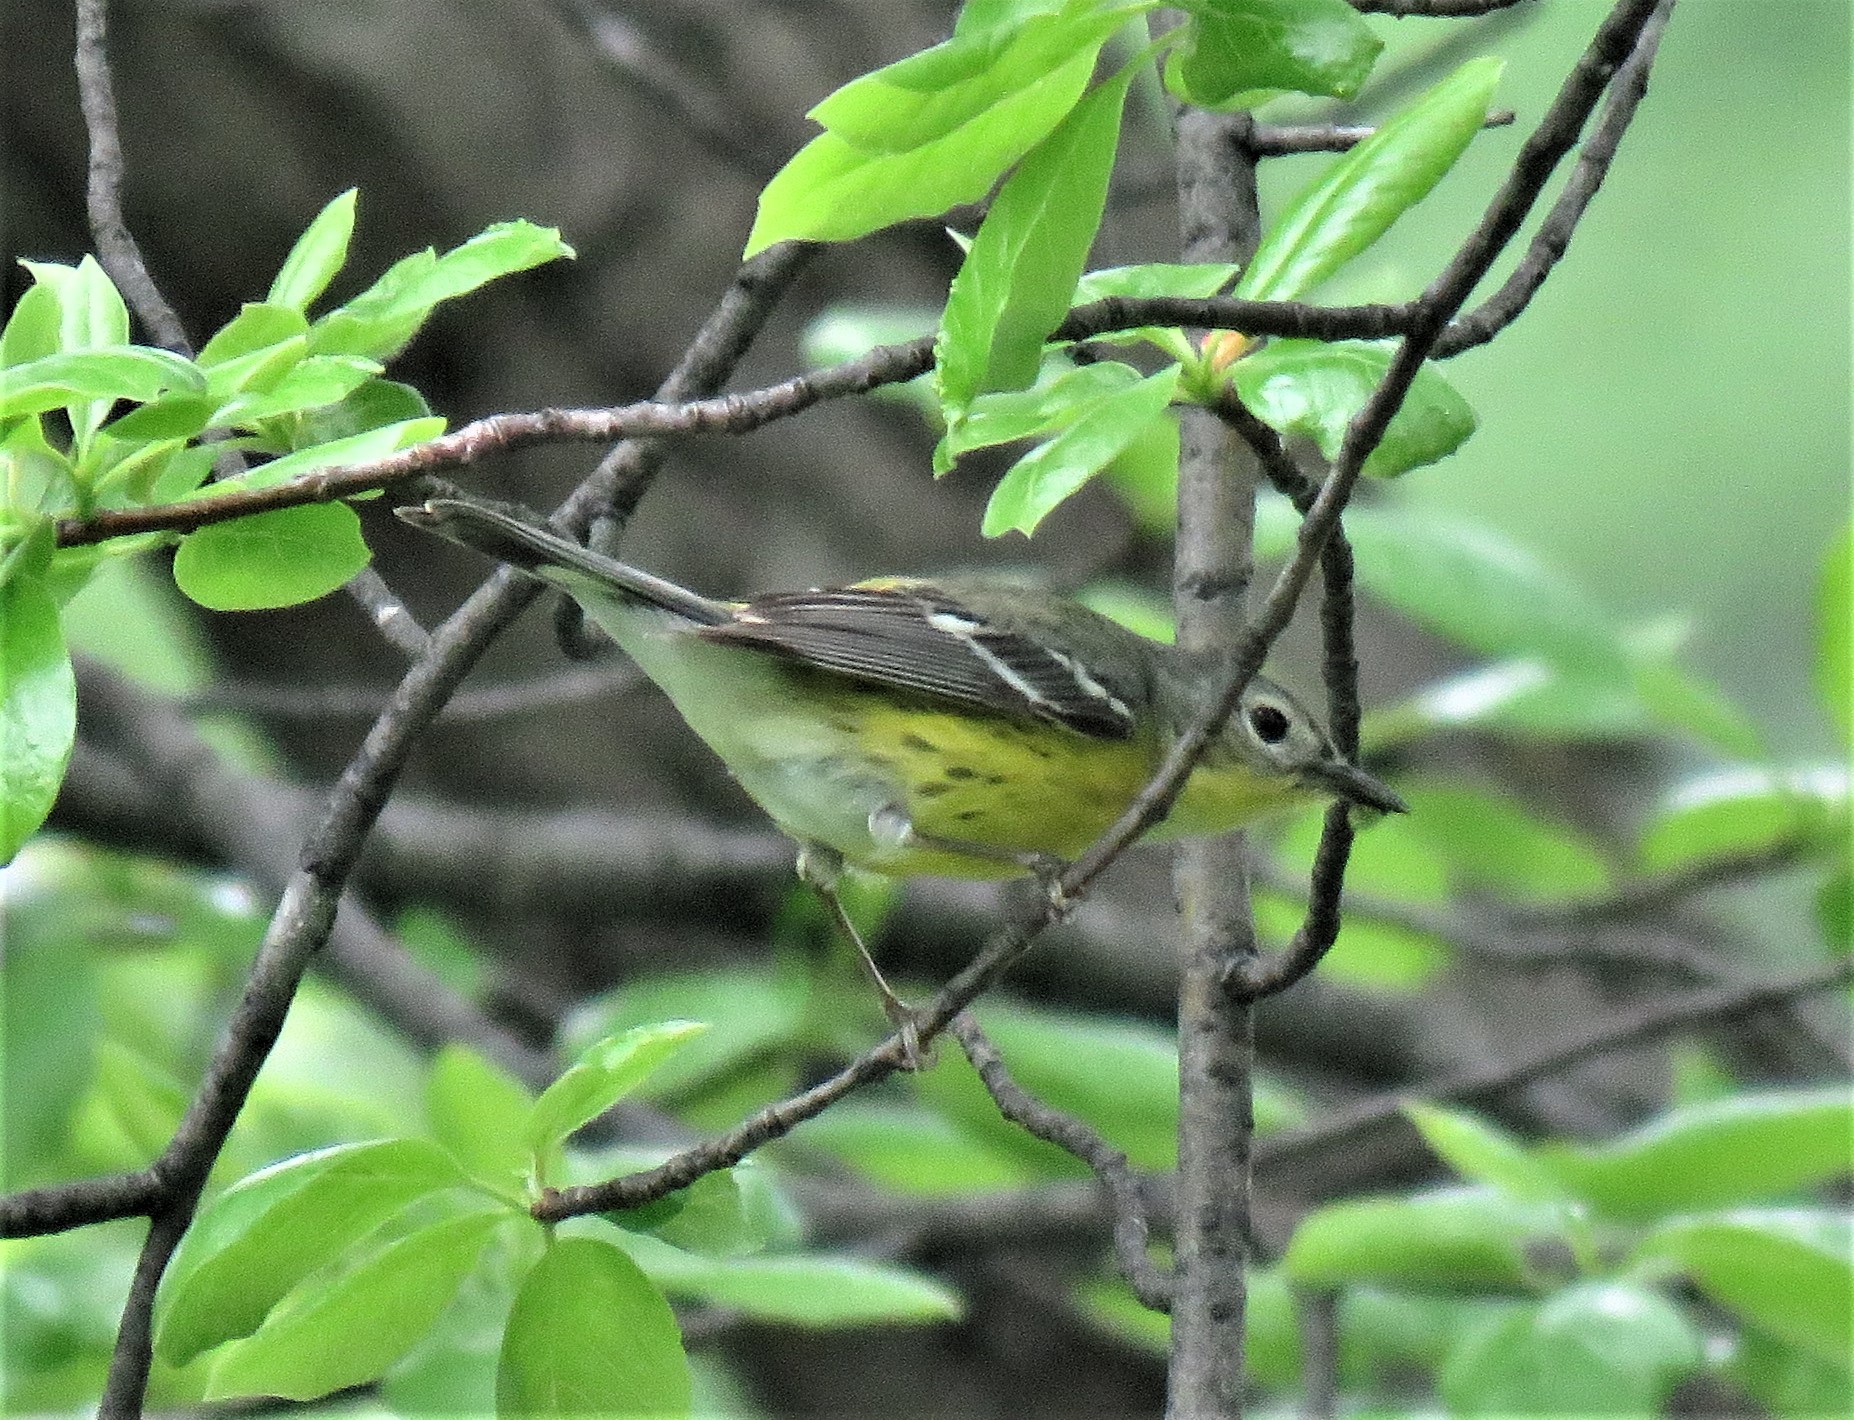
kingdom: Animalia
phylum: Chordata
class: Aves
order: Passeriformes
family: Parulidae
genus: Setophaga
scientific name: Setophaga magnolia
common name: Magnolia warbler
